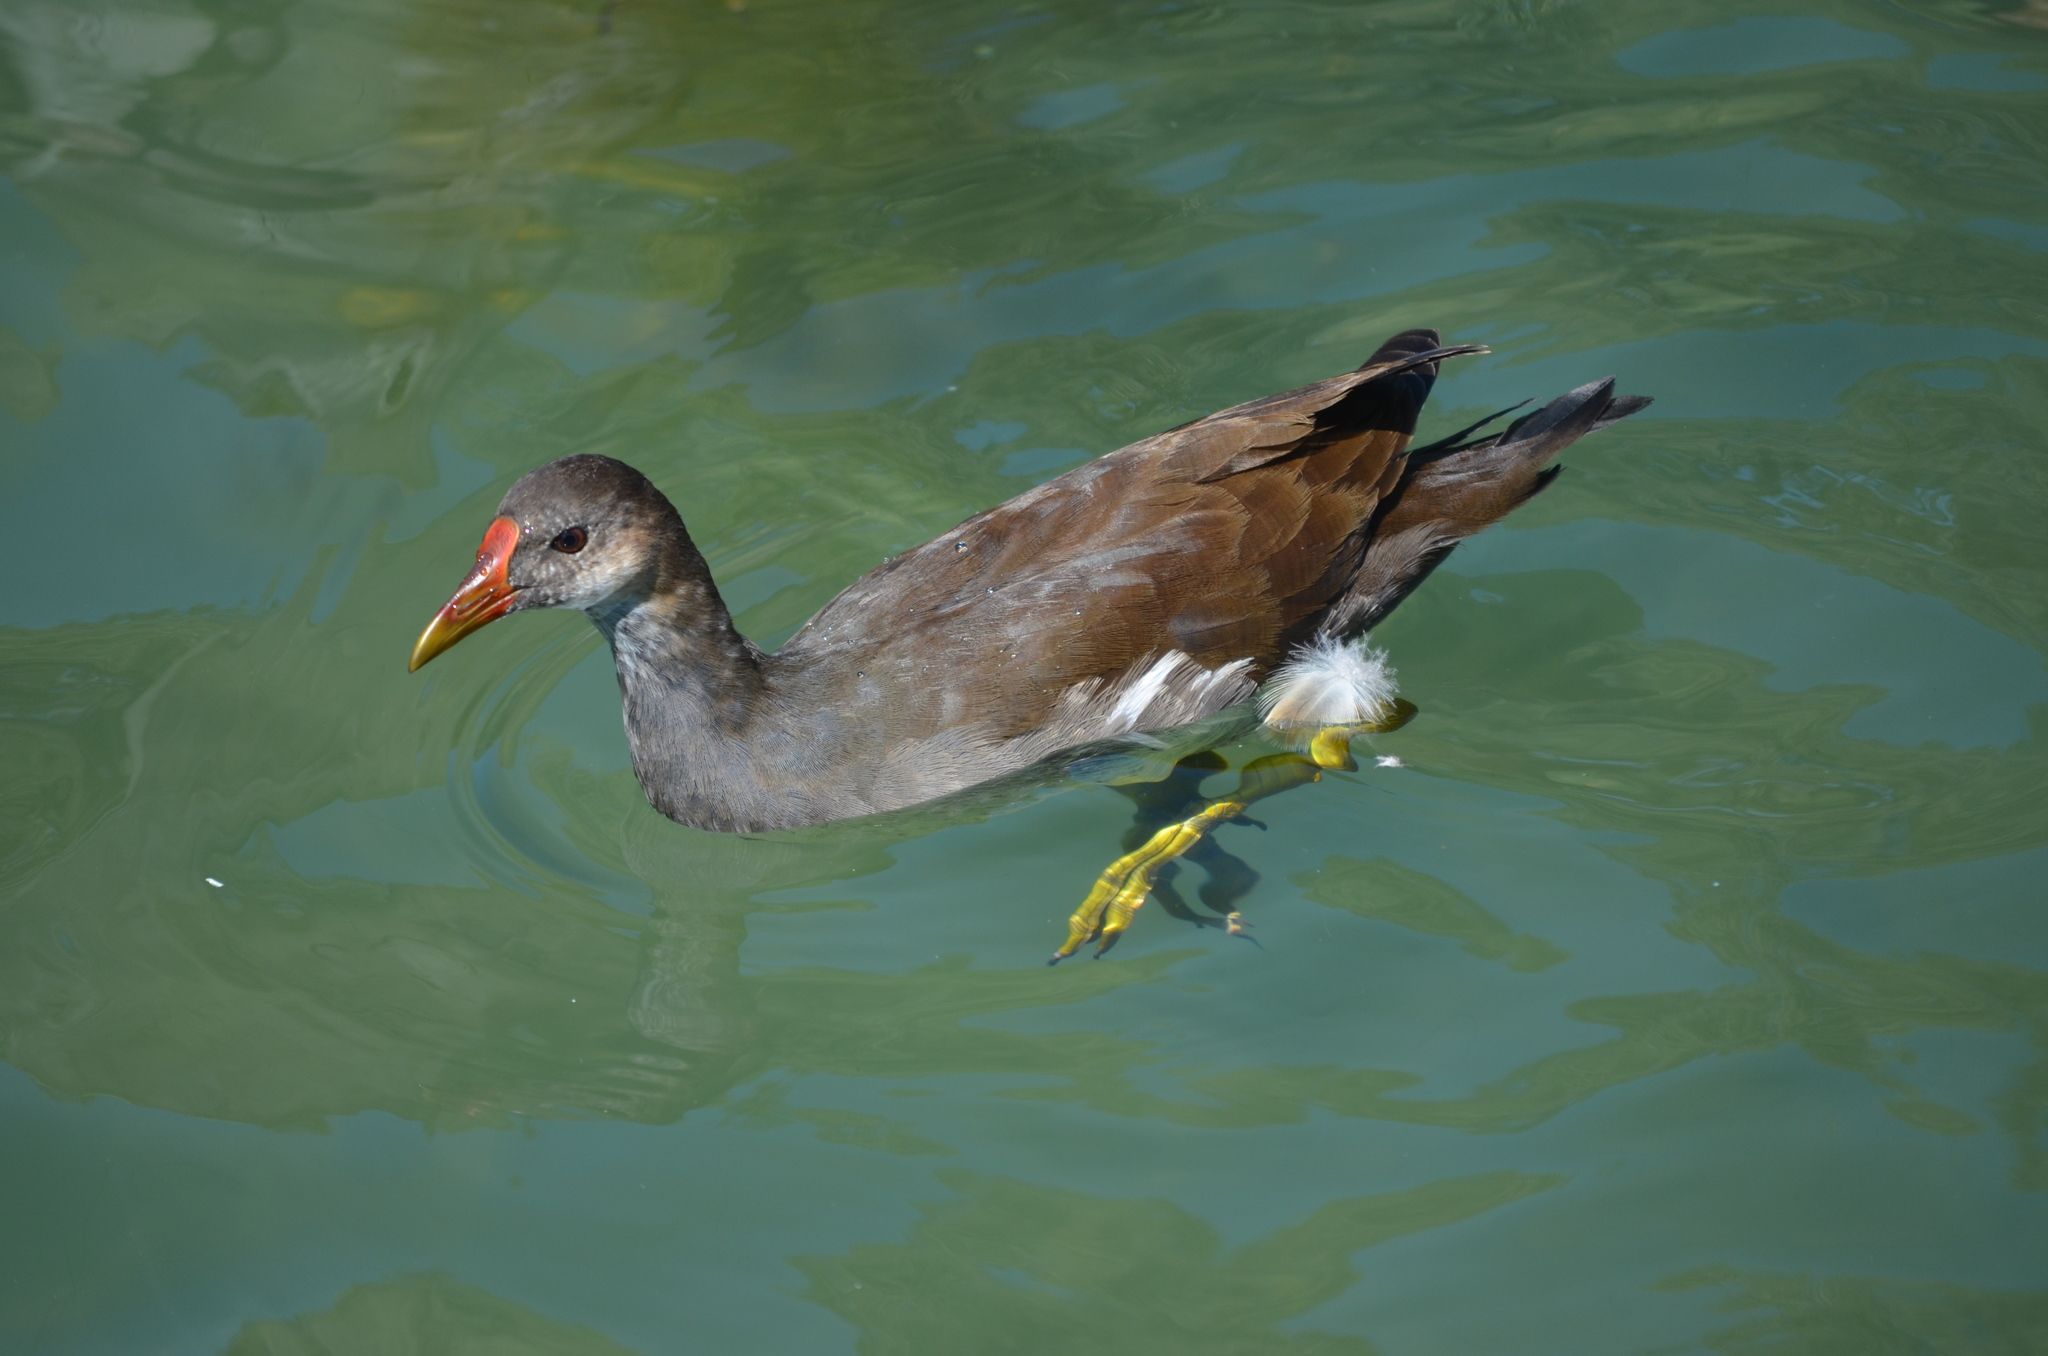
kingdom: Animalia
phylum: Chordata
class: Aves
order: Gruiformes
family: Rallidae
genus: Gallinula
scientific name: Gallinula chloropus
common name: Common moorhen
